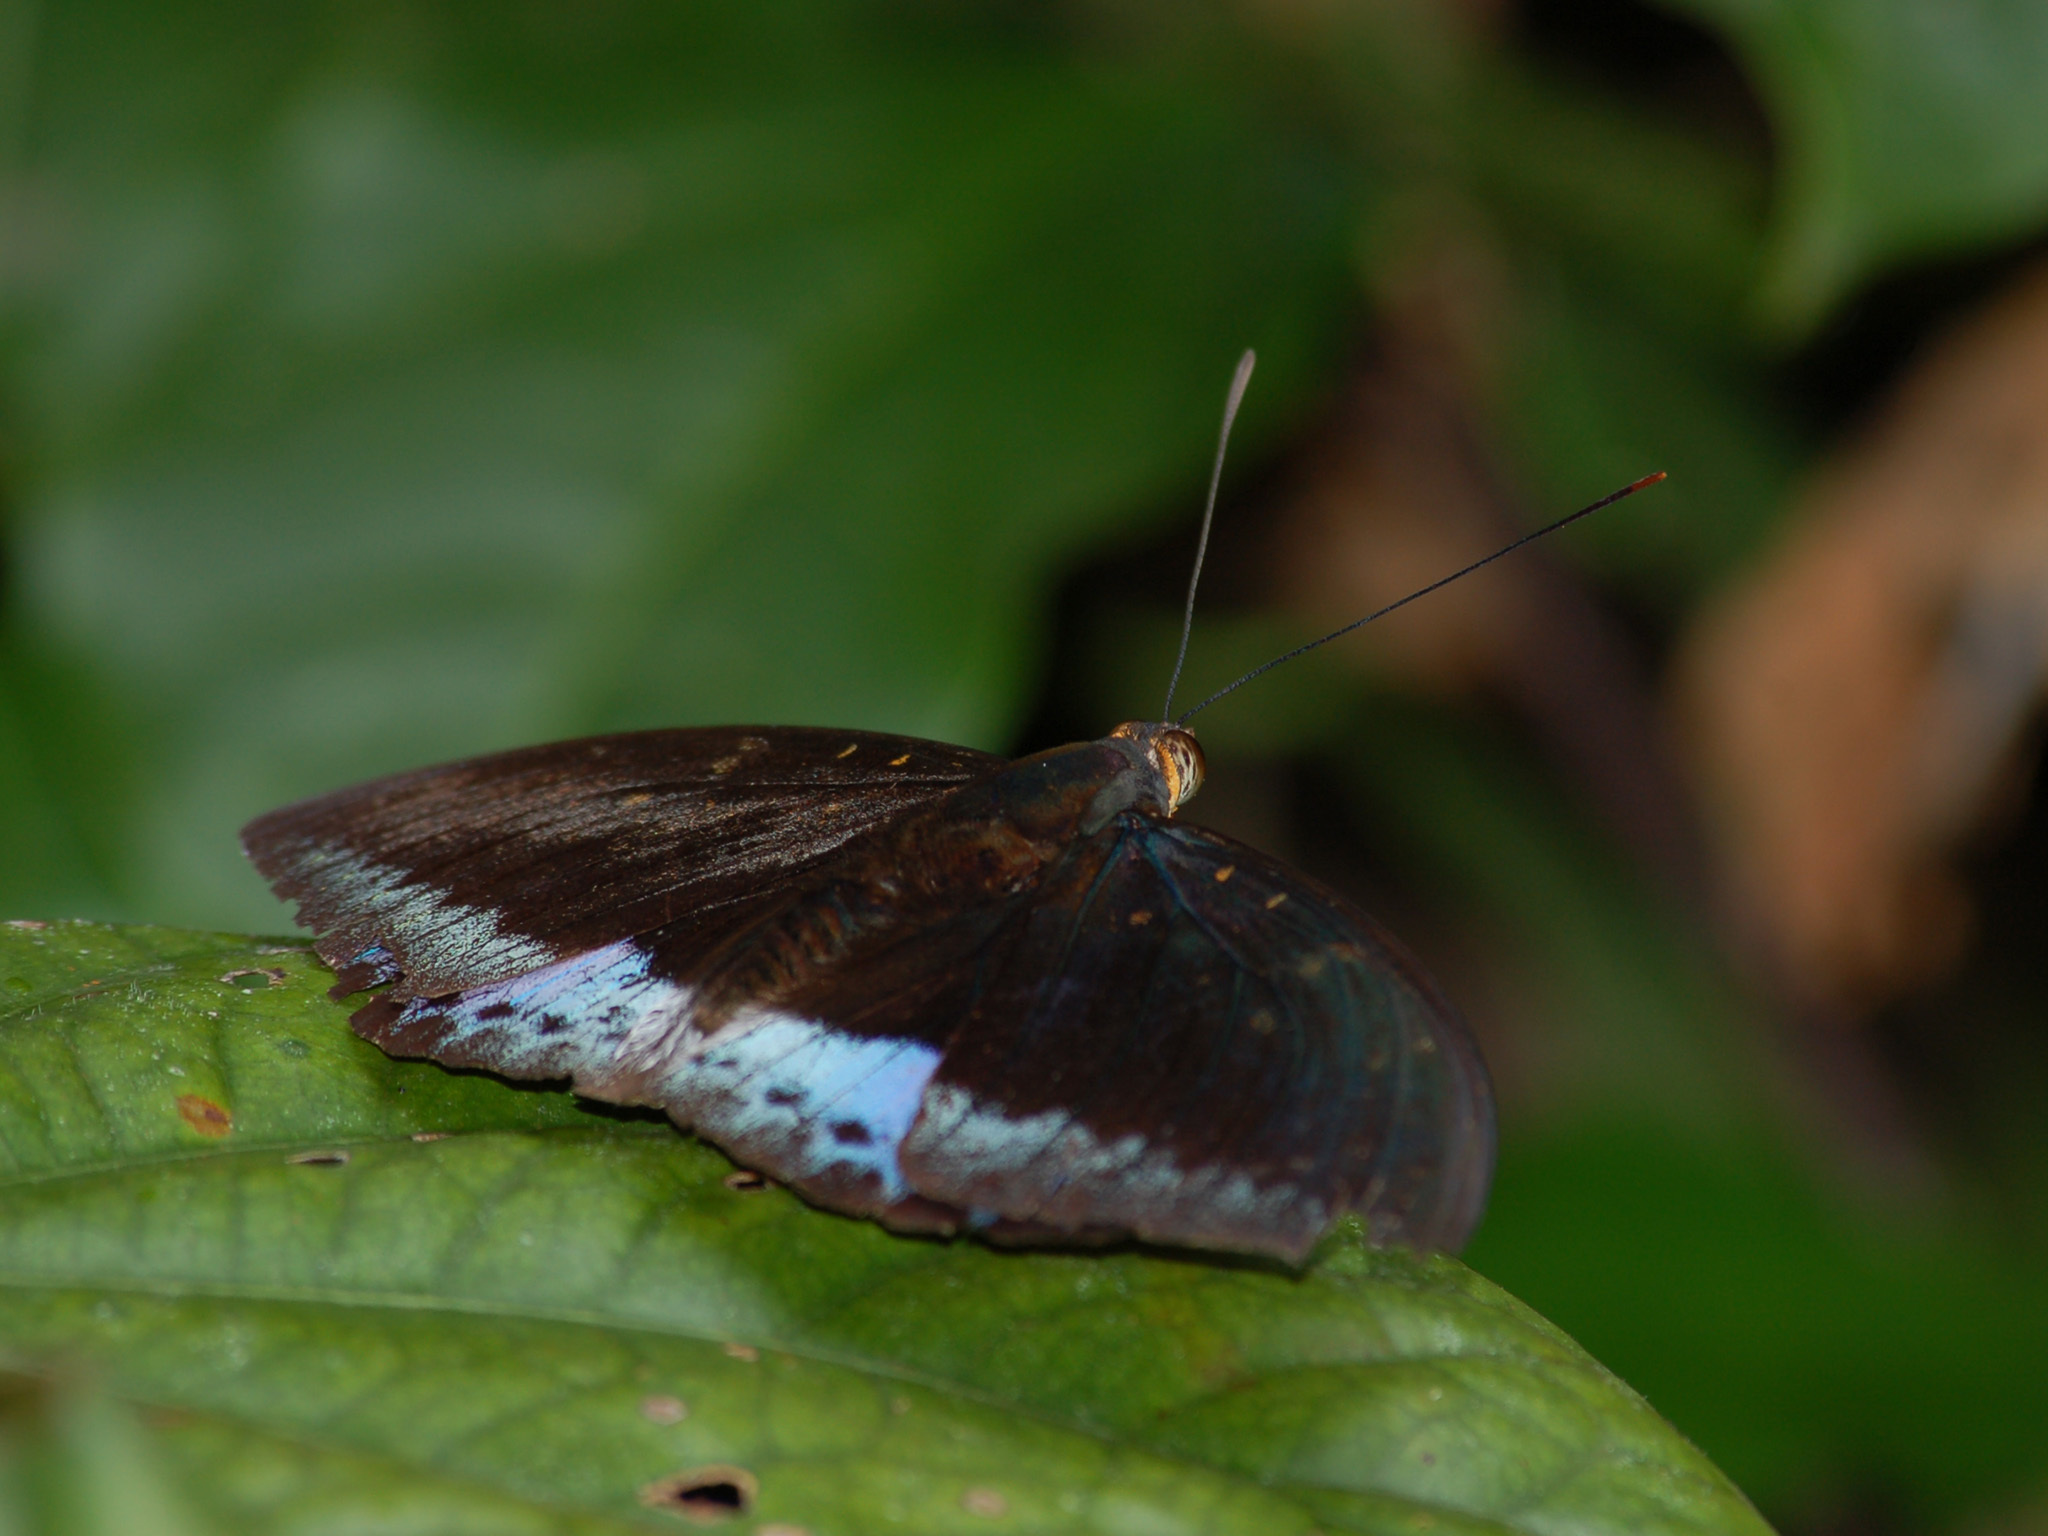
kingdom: Animalia
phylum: Arthropoda
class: Insecta
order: Lepidoptera
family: Nymphalidae
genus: Lexias
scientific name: Lexias pardalis
